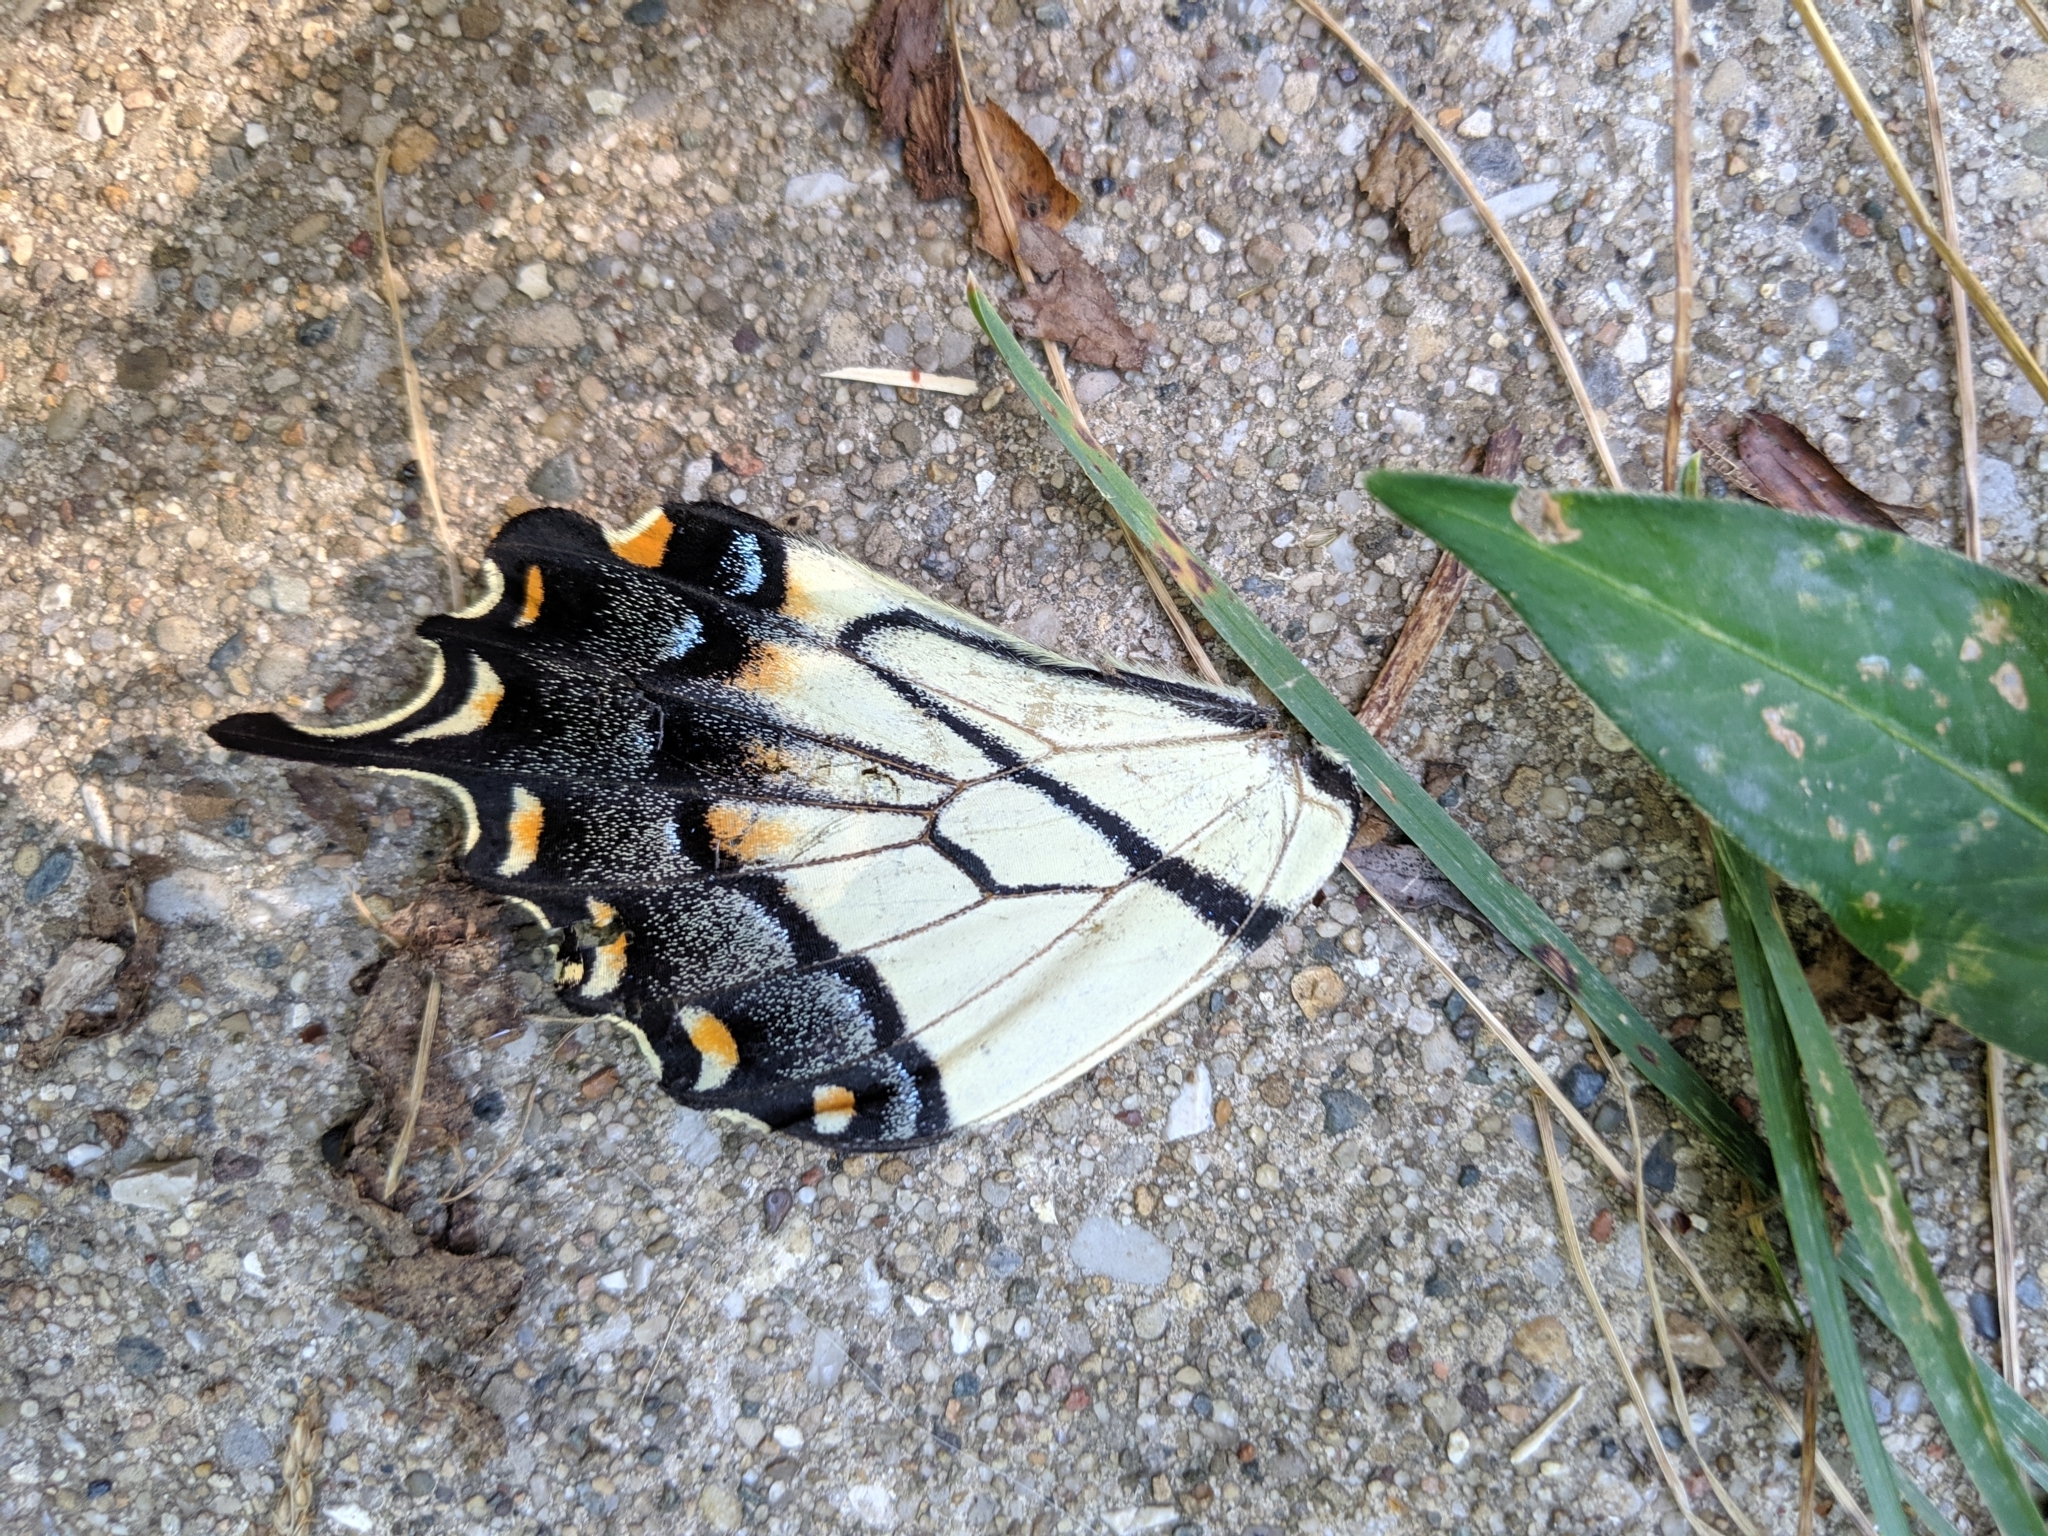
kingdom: Animalia
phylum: Arthropoda
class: Insecta
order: Lepidoptera
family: Papilionidae
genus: Papilio
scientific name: Papilio glaucus
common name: Tiger swallowtail
